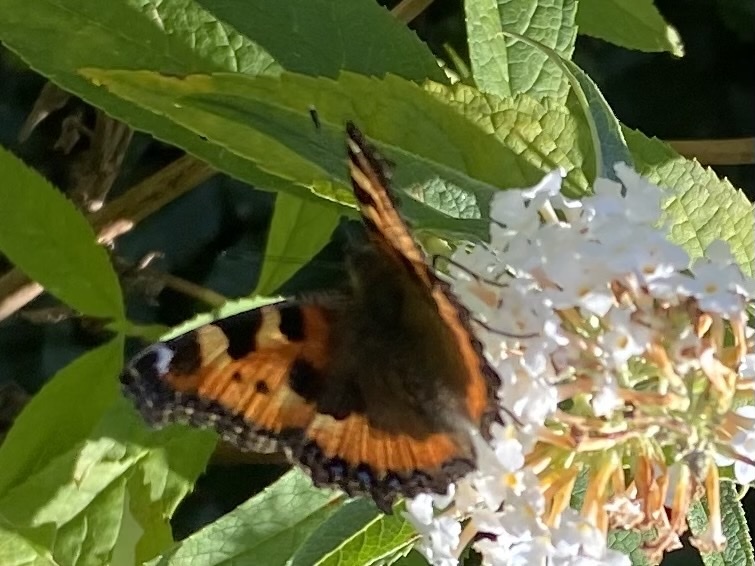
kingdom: Animalia
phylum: Arthropoda
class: Insecta
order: Lepidoptera
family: Nymphalidae
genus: Aglais
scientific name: Aglais urticae
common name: Small tortoiseshell
